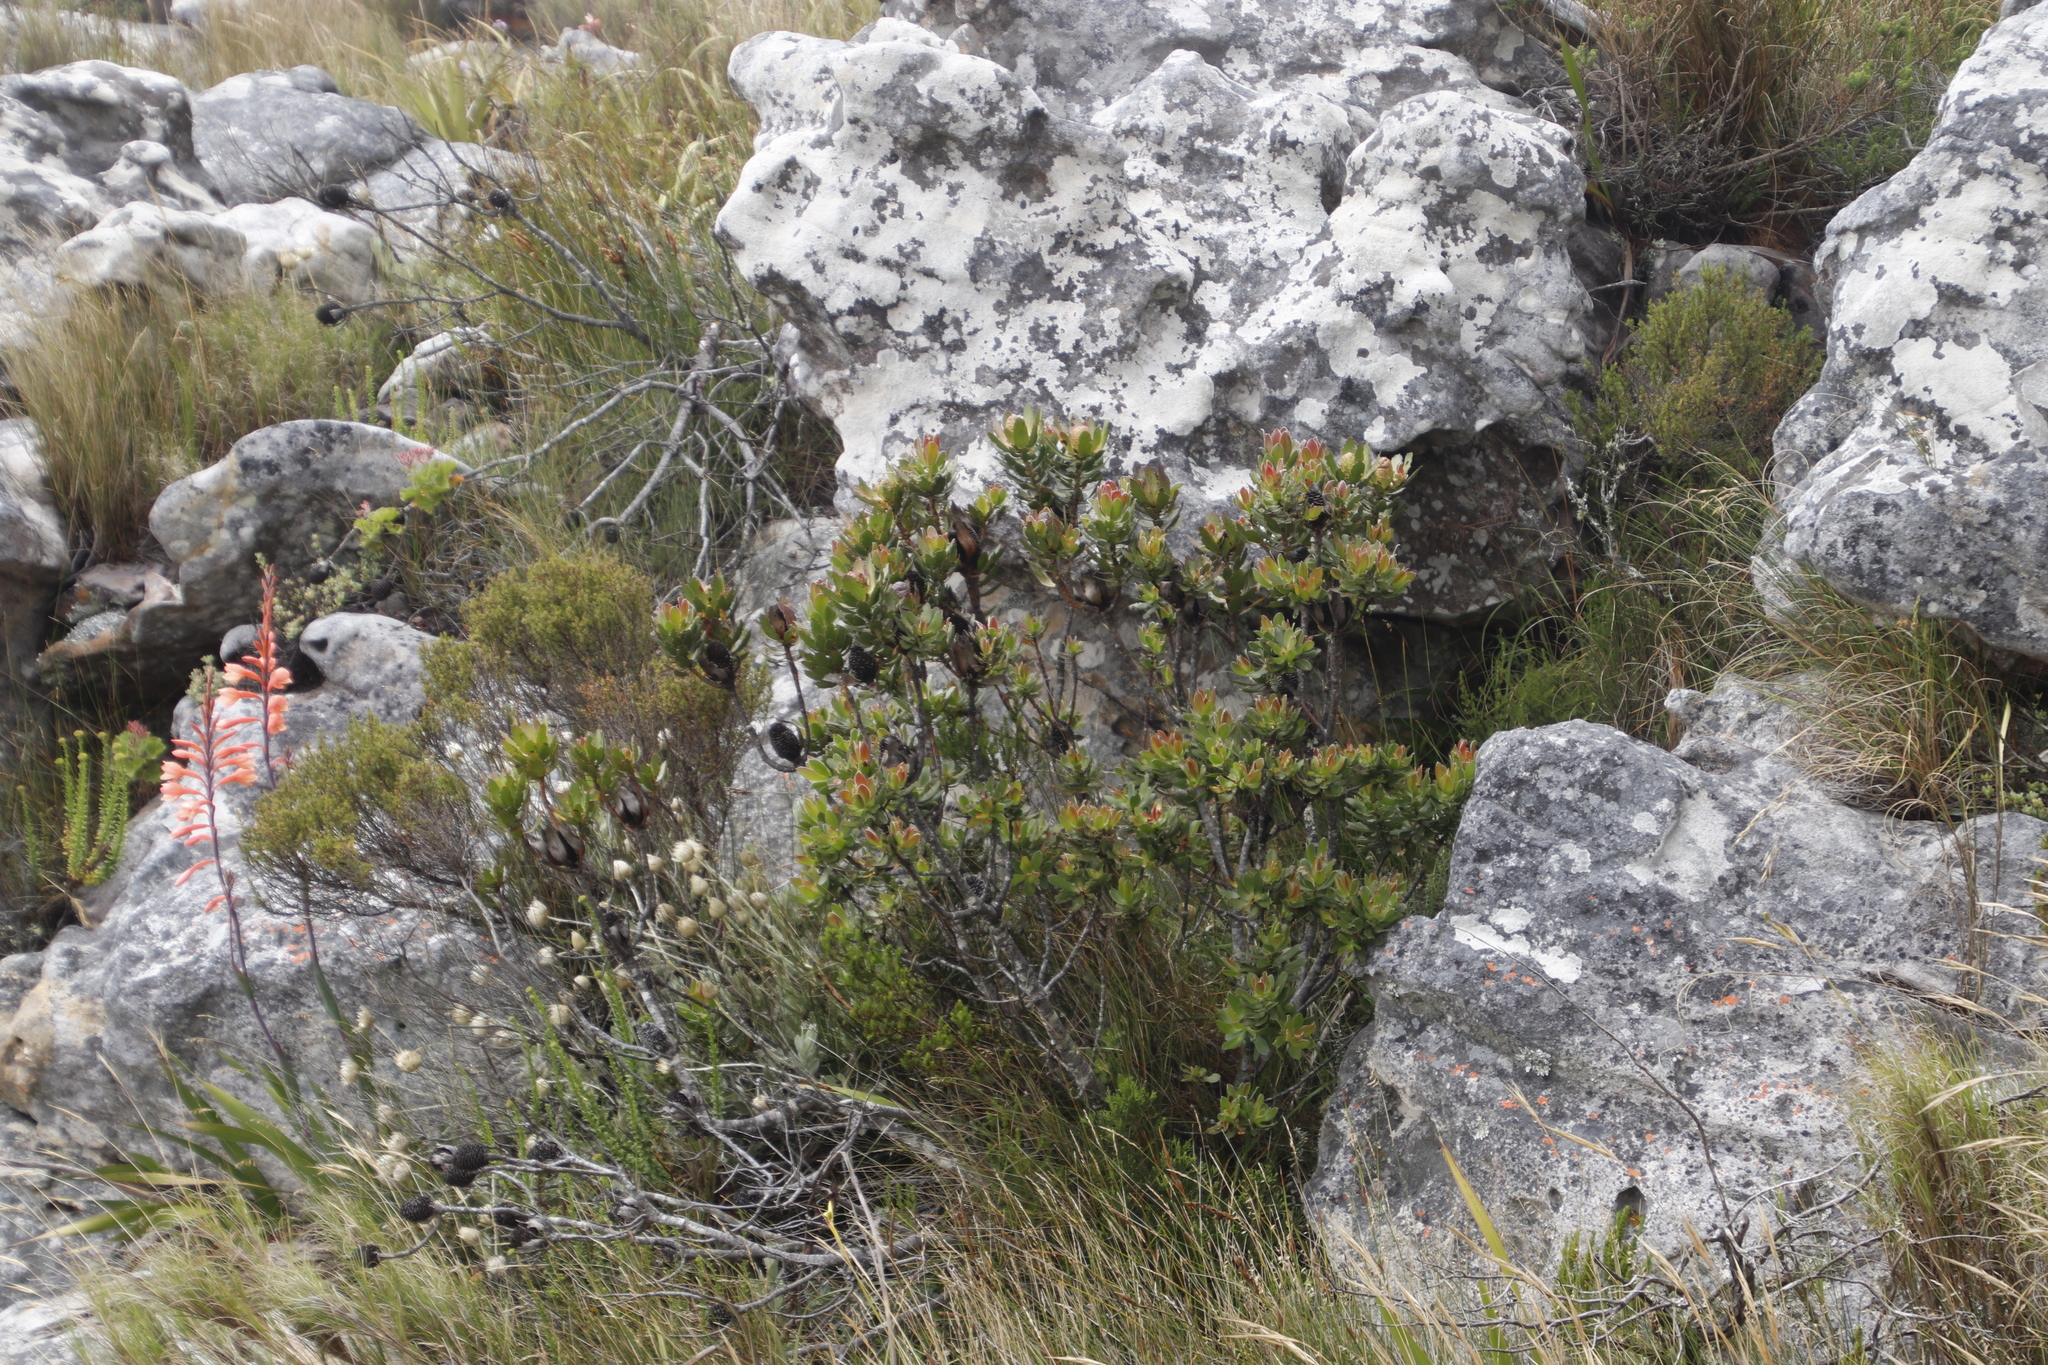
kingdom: Plantae
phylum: Tracheophyta
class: Magnoliopsida
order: Proteales
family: Proteaceae
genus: Leucadendron
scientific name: Leucadendron strobilinum
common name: Mountain rose
